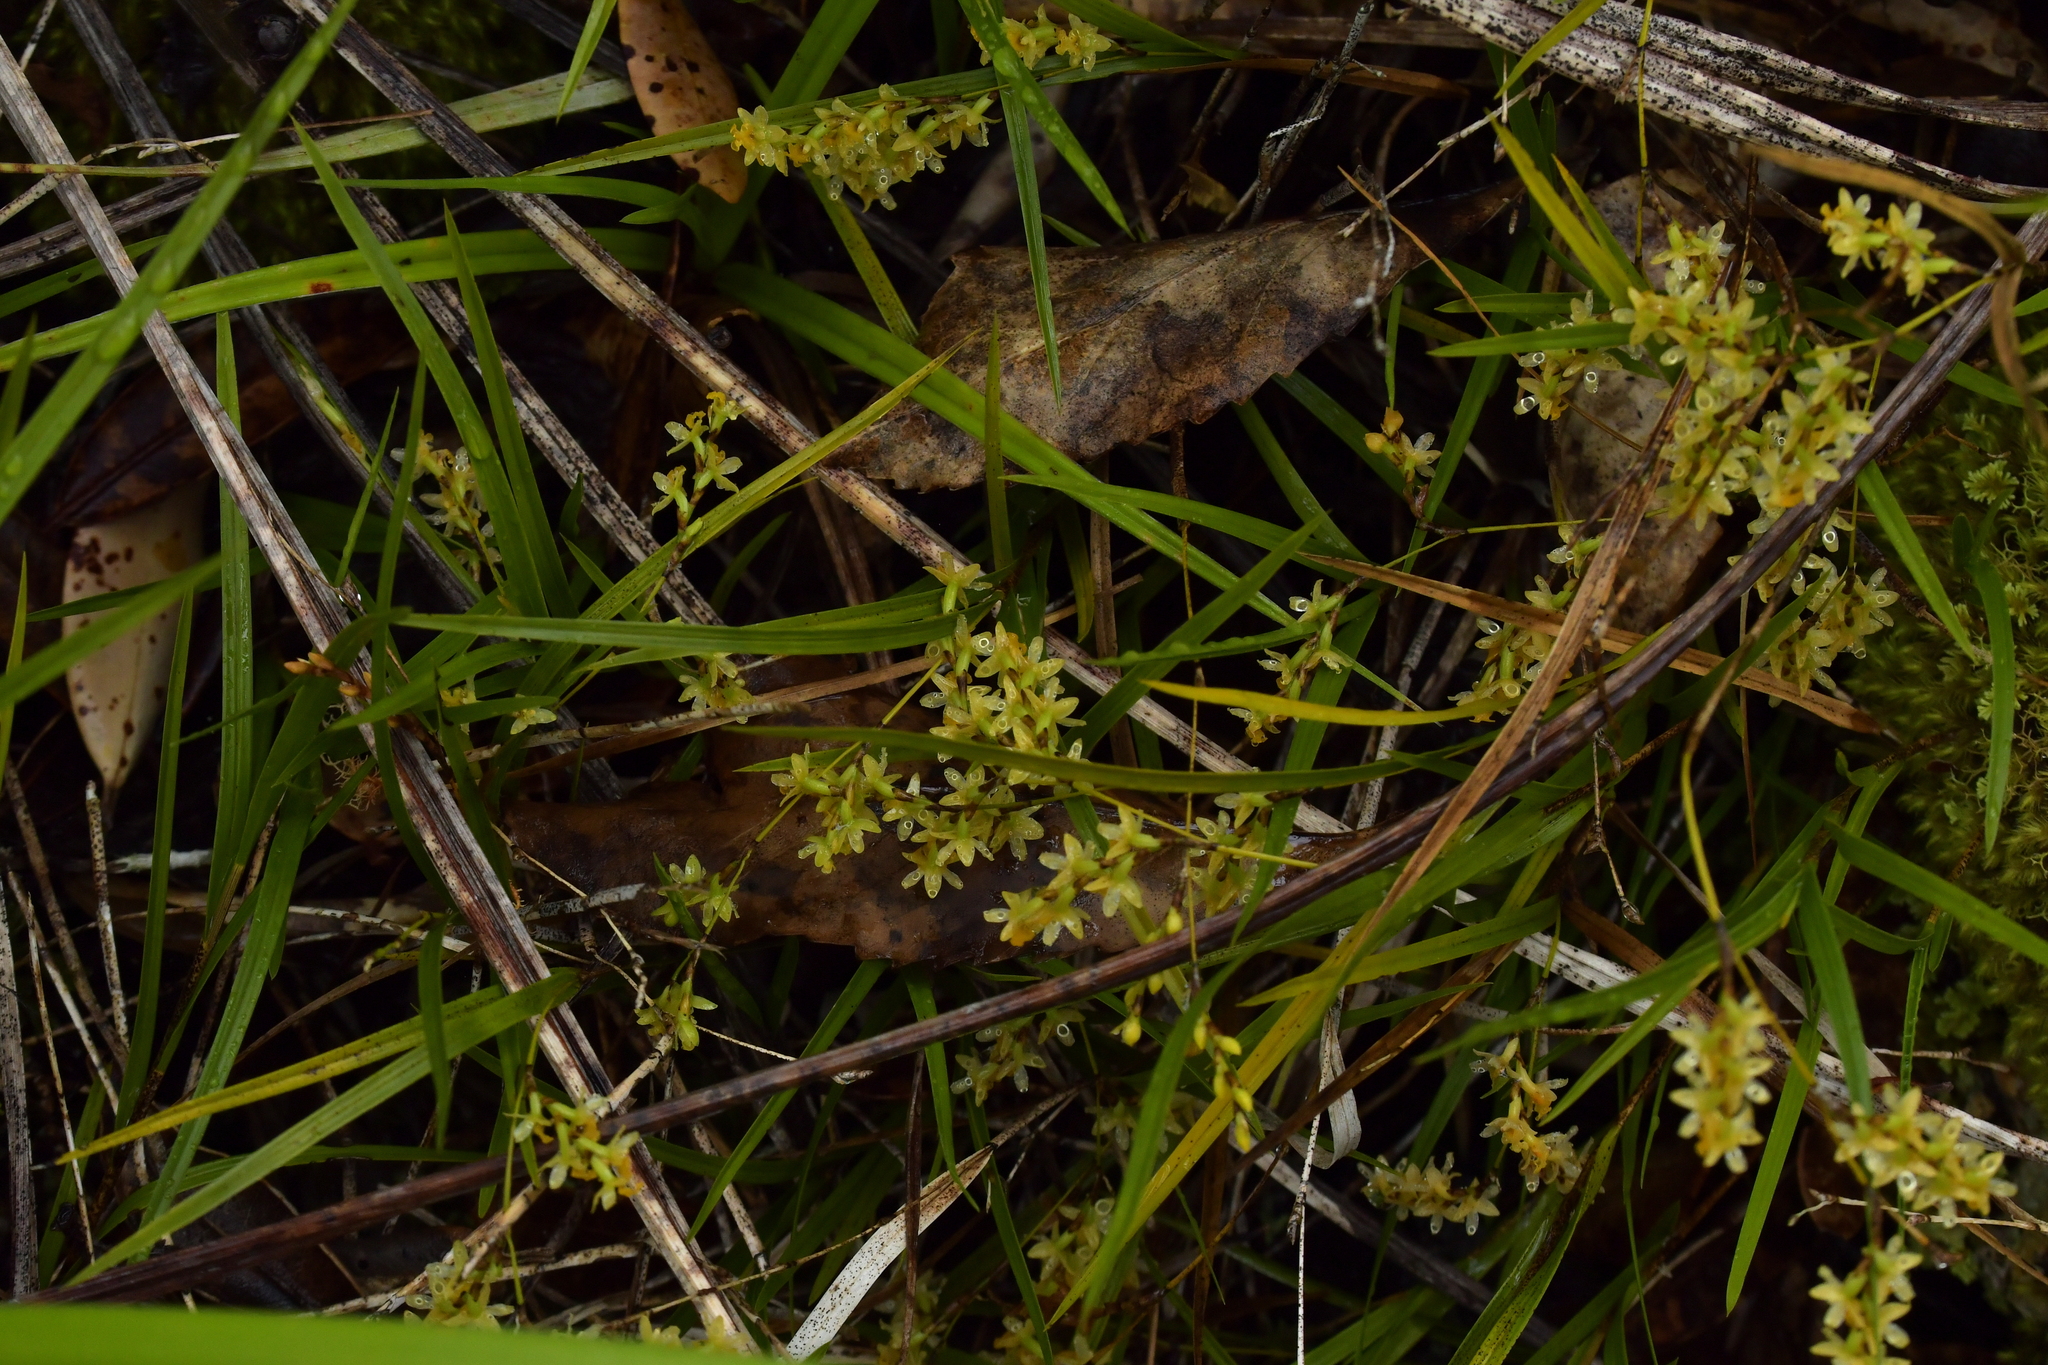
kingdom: Plantae
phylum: Tracheophyta
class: Liliopsida
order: Asparagales
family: Orchidaceae
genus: Earina
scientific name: Earina mucronata
